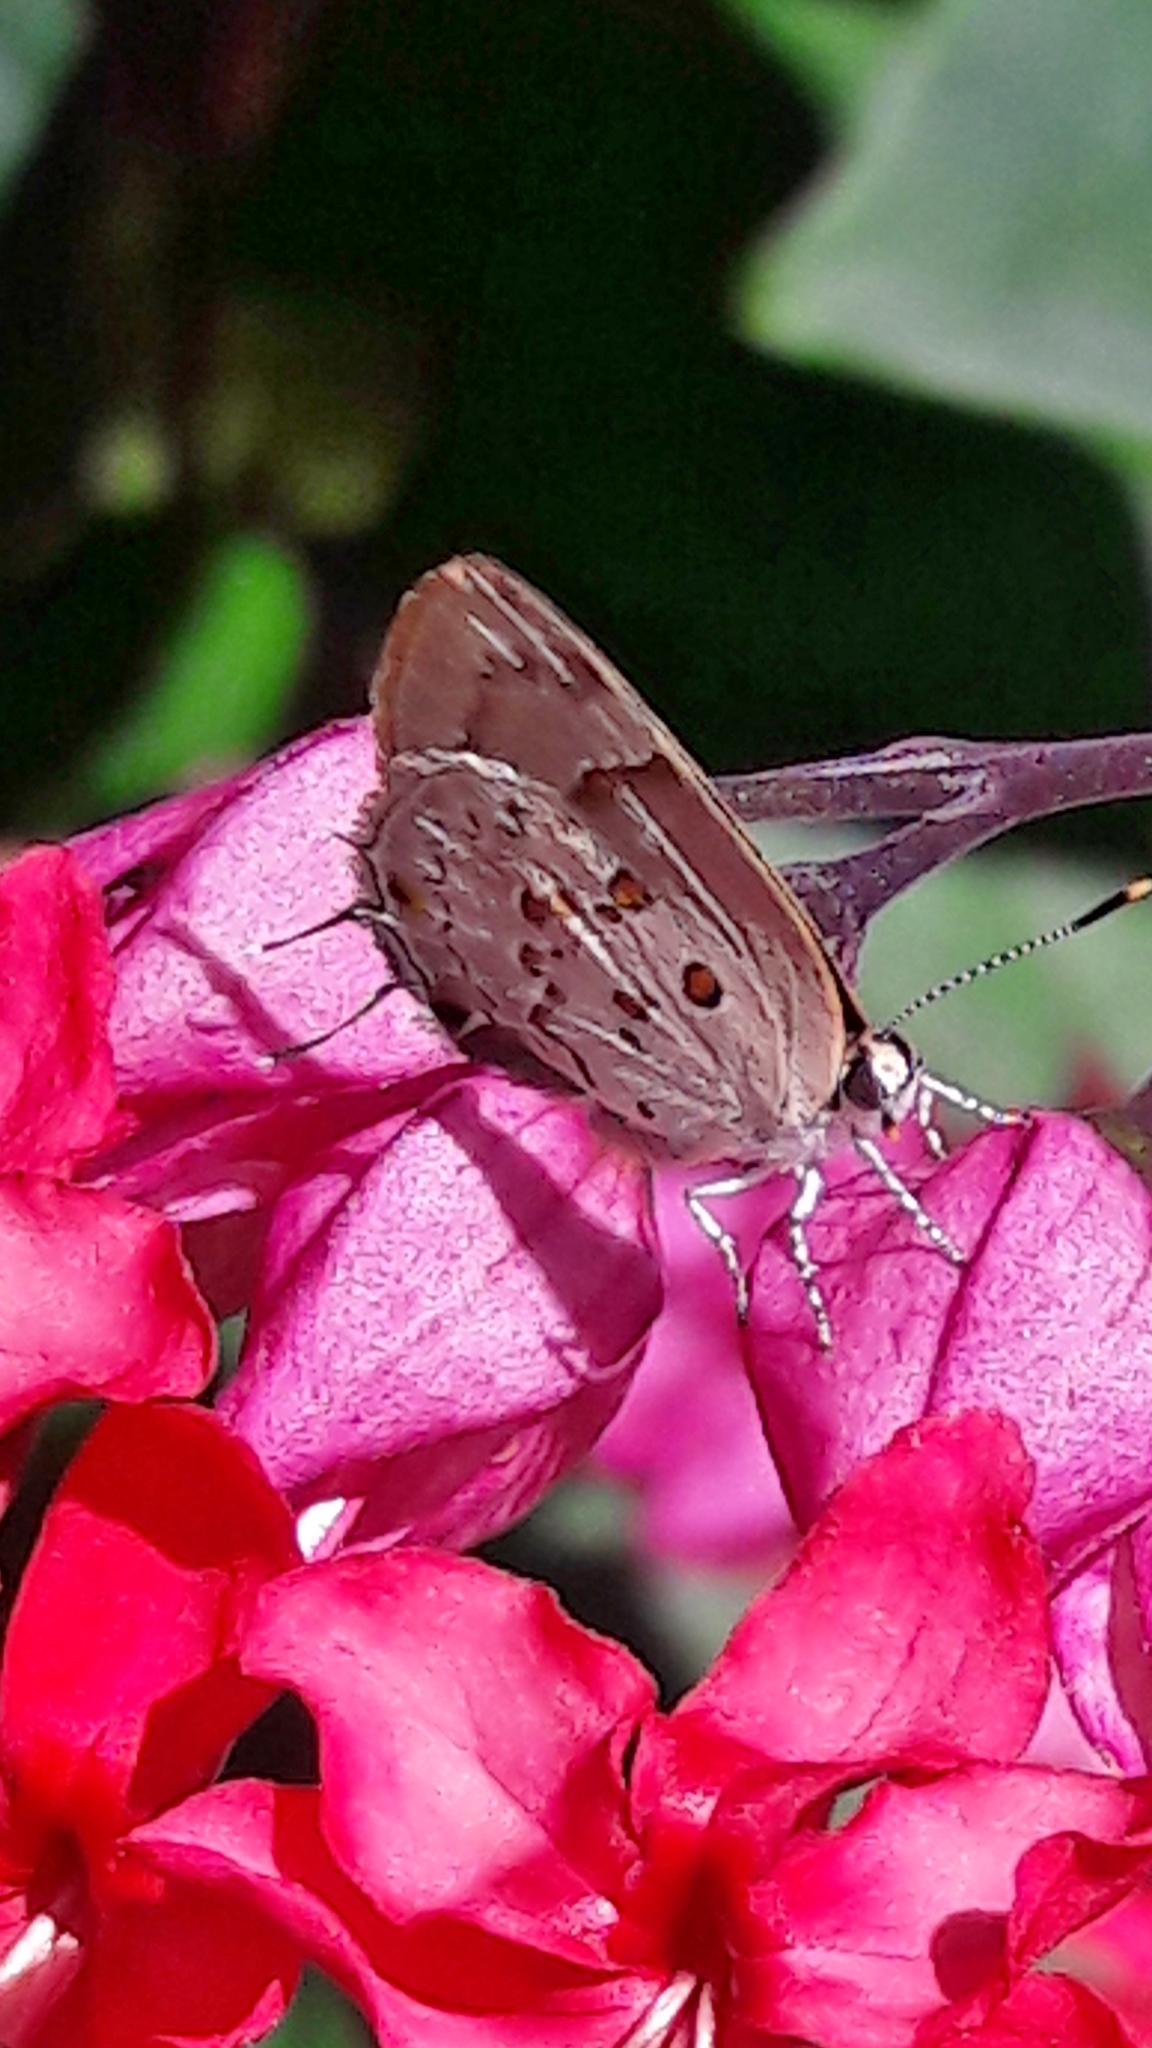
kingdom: Animalia
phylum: Arthropoda
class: Insecta
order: Lepidoptera
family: Lycaenidae
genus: Tmolus
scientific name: Tmolus echion
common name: Red-spotted hairstreak
